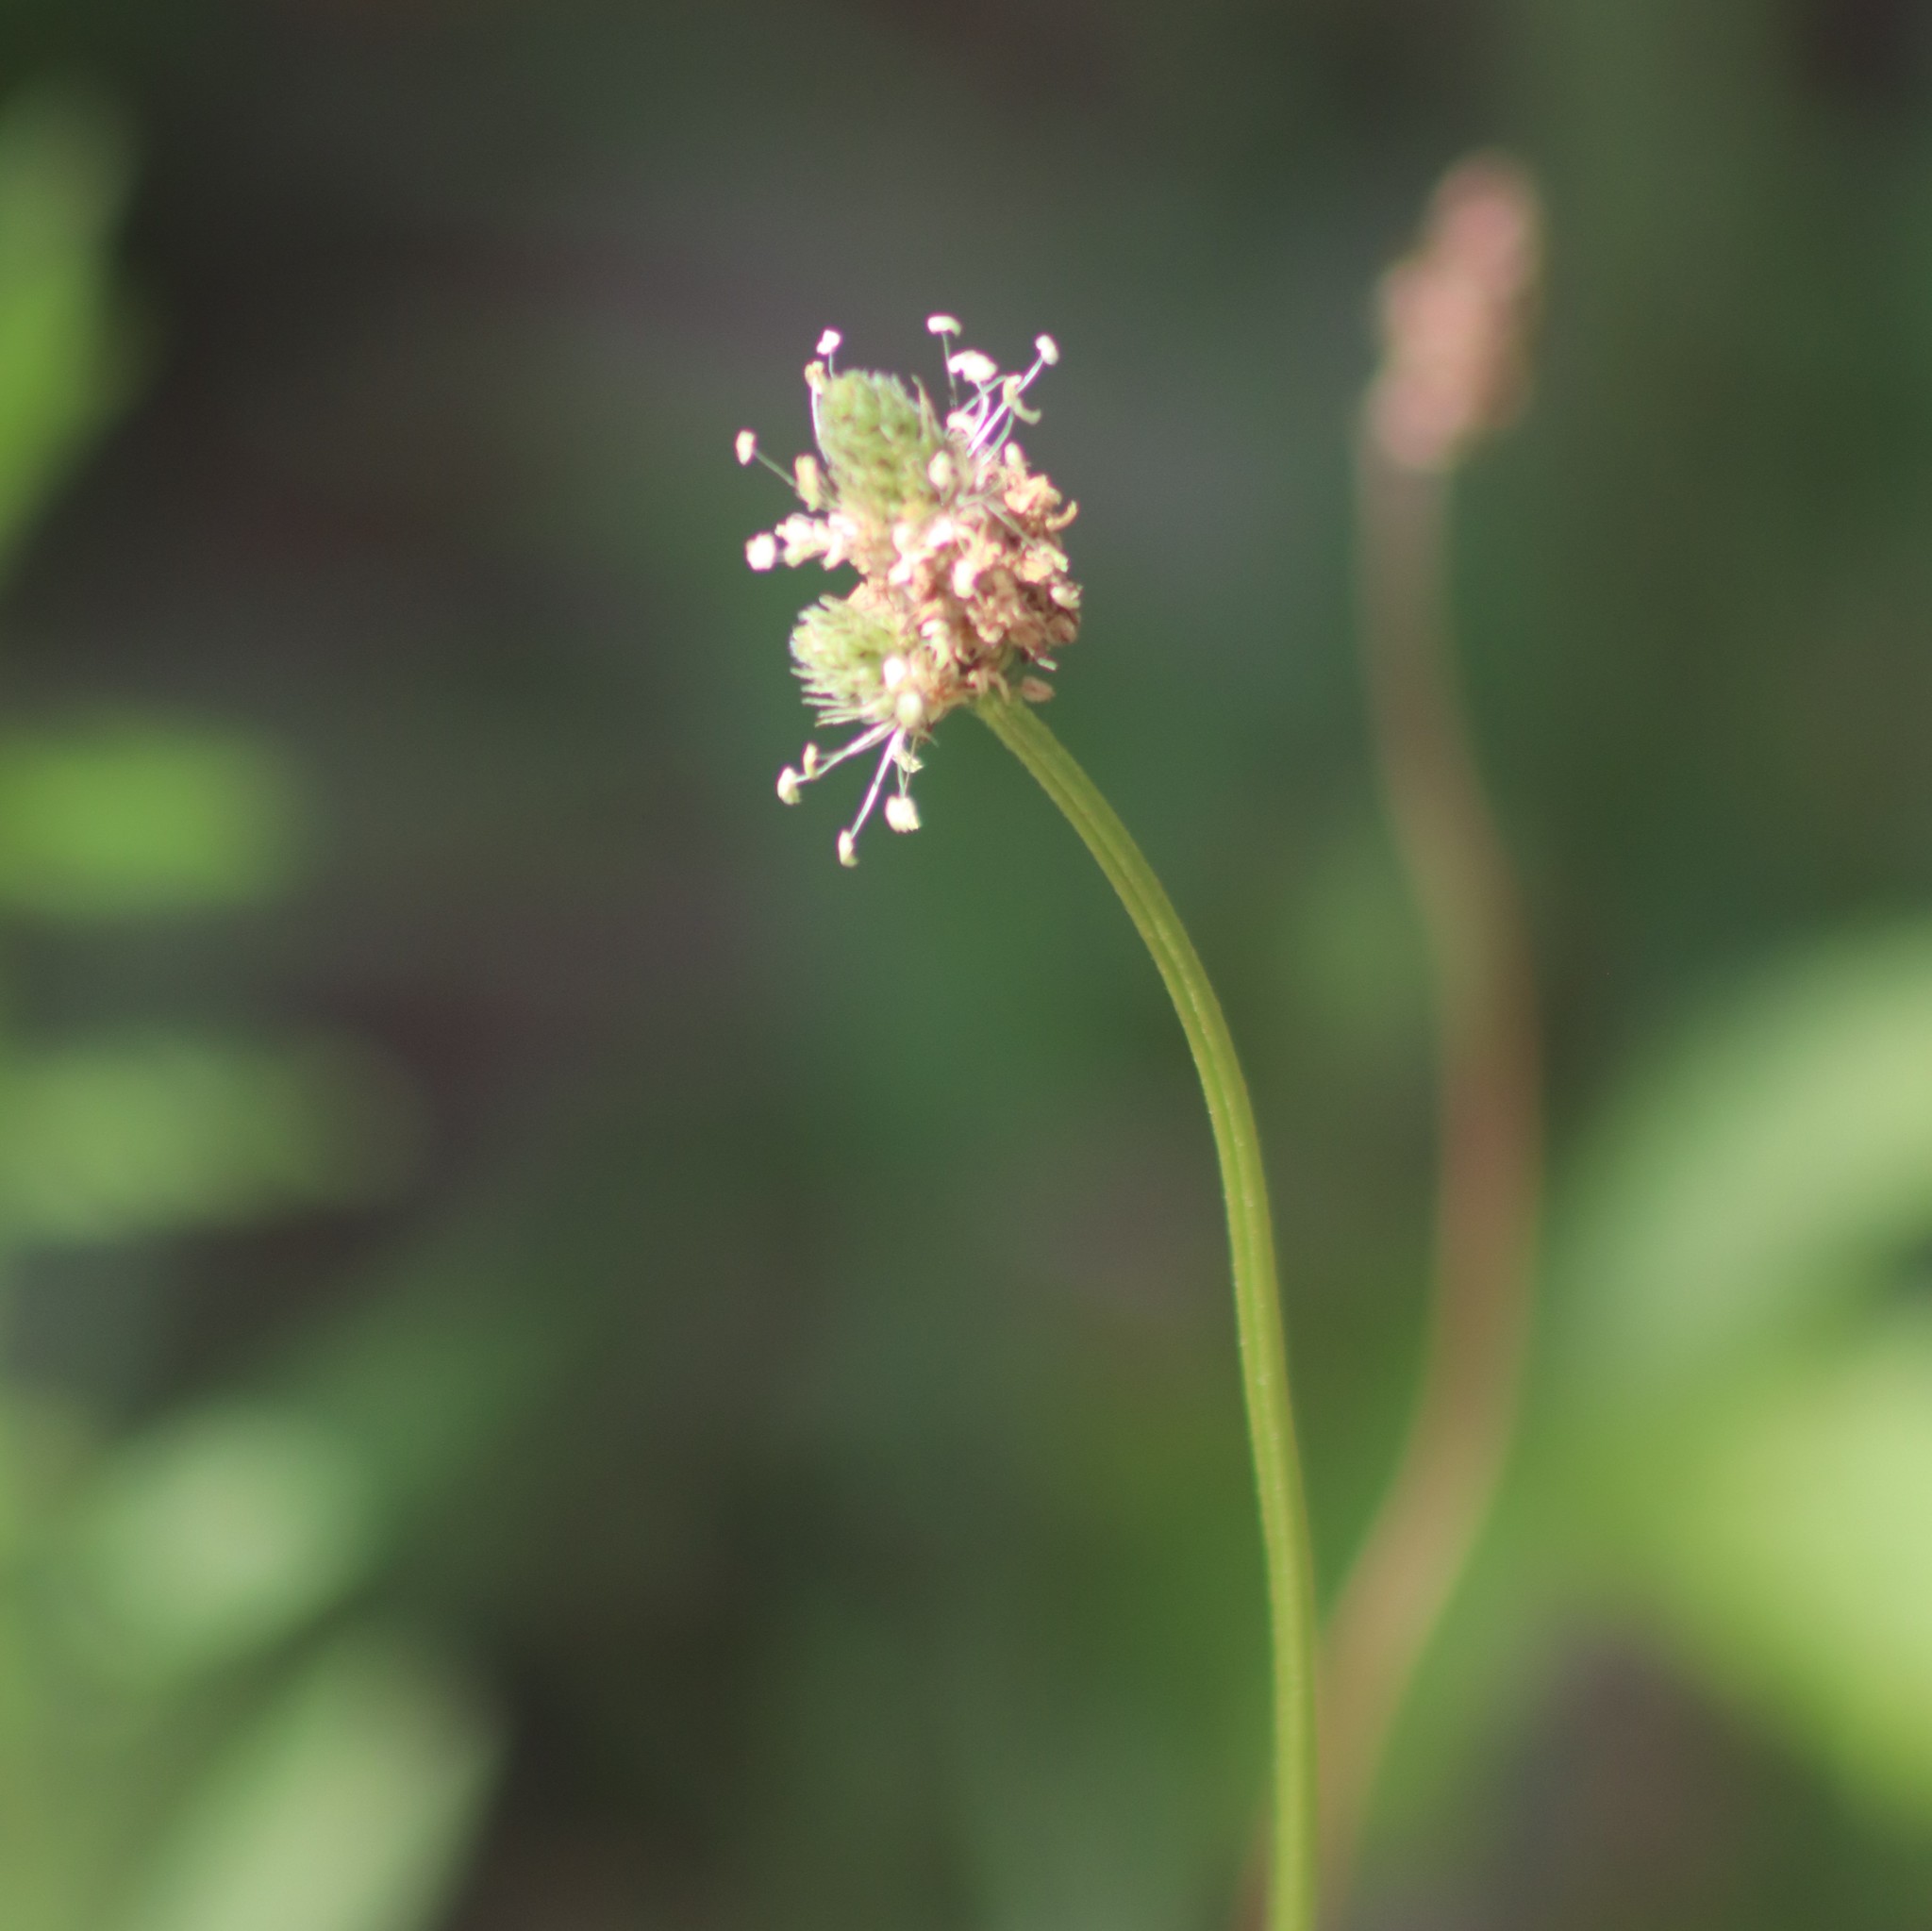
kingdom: Plantae
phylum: Tracheophyta
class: Magnoliopsida
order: Lamiales
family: Plantaginaceae
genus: Plantago
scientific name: Plantago lanceolata
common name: Ribwort plantain
